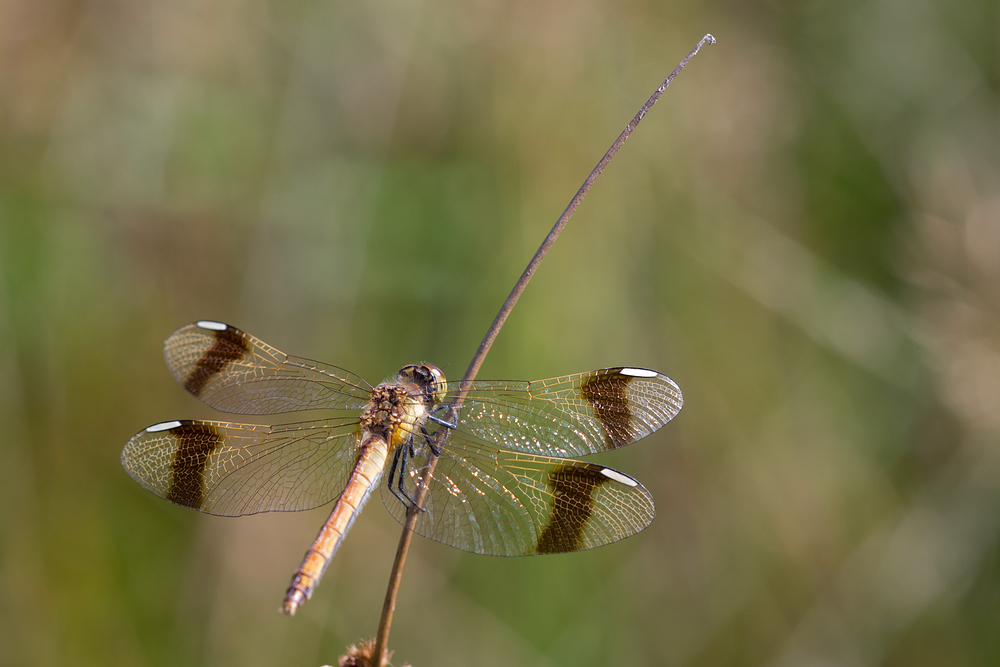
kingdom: Animalia
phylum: Arthropoda
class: Insecta
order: Odonata
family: Libellulidae
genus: Sympetrum
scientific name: Sympetrum pedemontanum
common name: Banded darter
